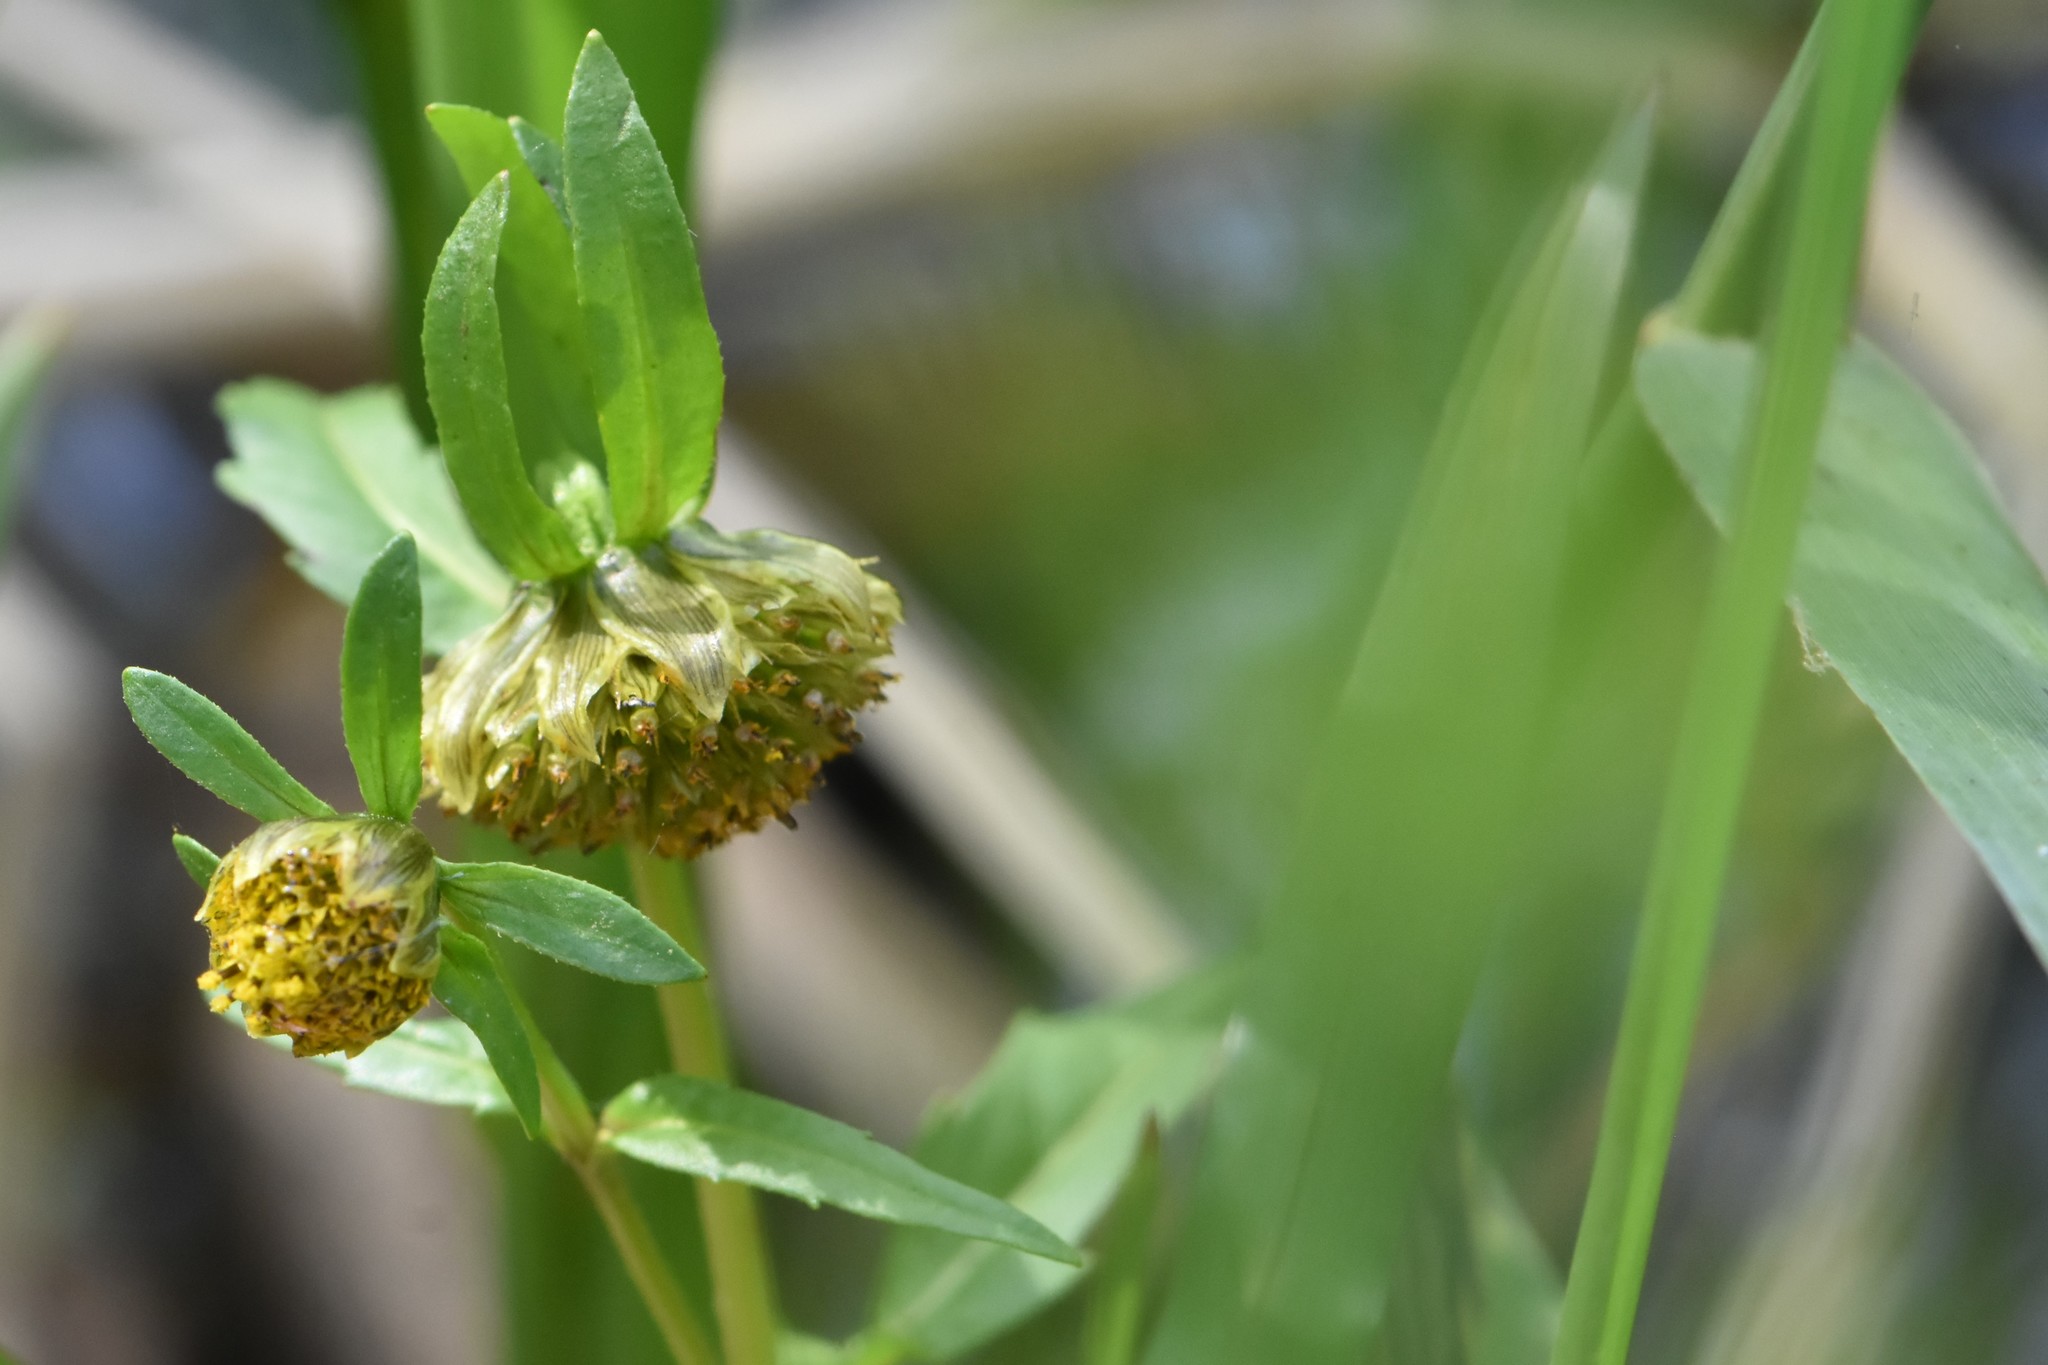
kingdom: Plantae
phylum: Tracheophyta
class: Magnoliopsida
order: Asterales
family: Asteraceae
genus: Bidens
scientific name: Bidens cernua
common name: Nodding bur-marigold
